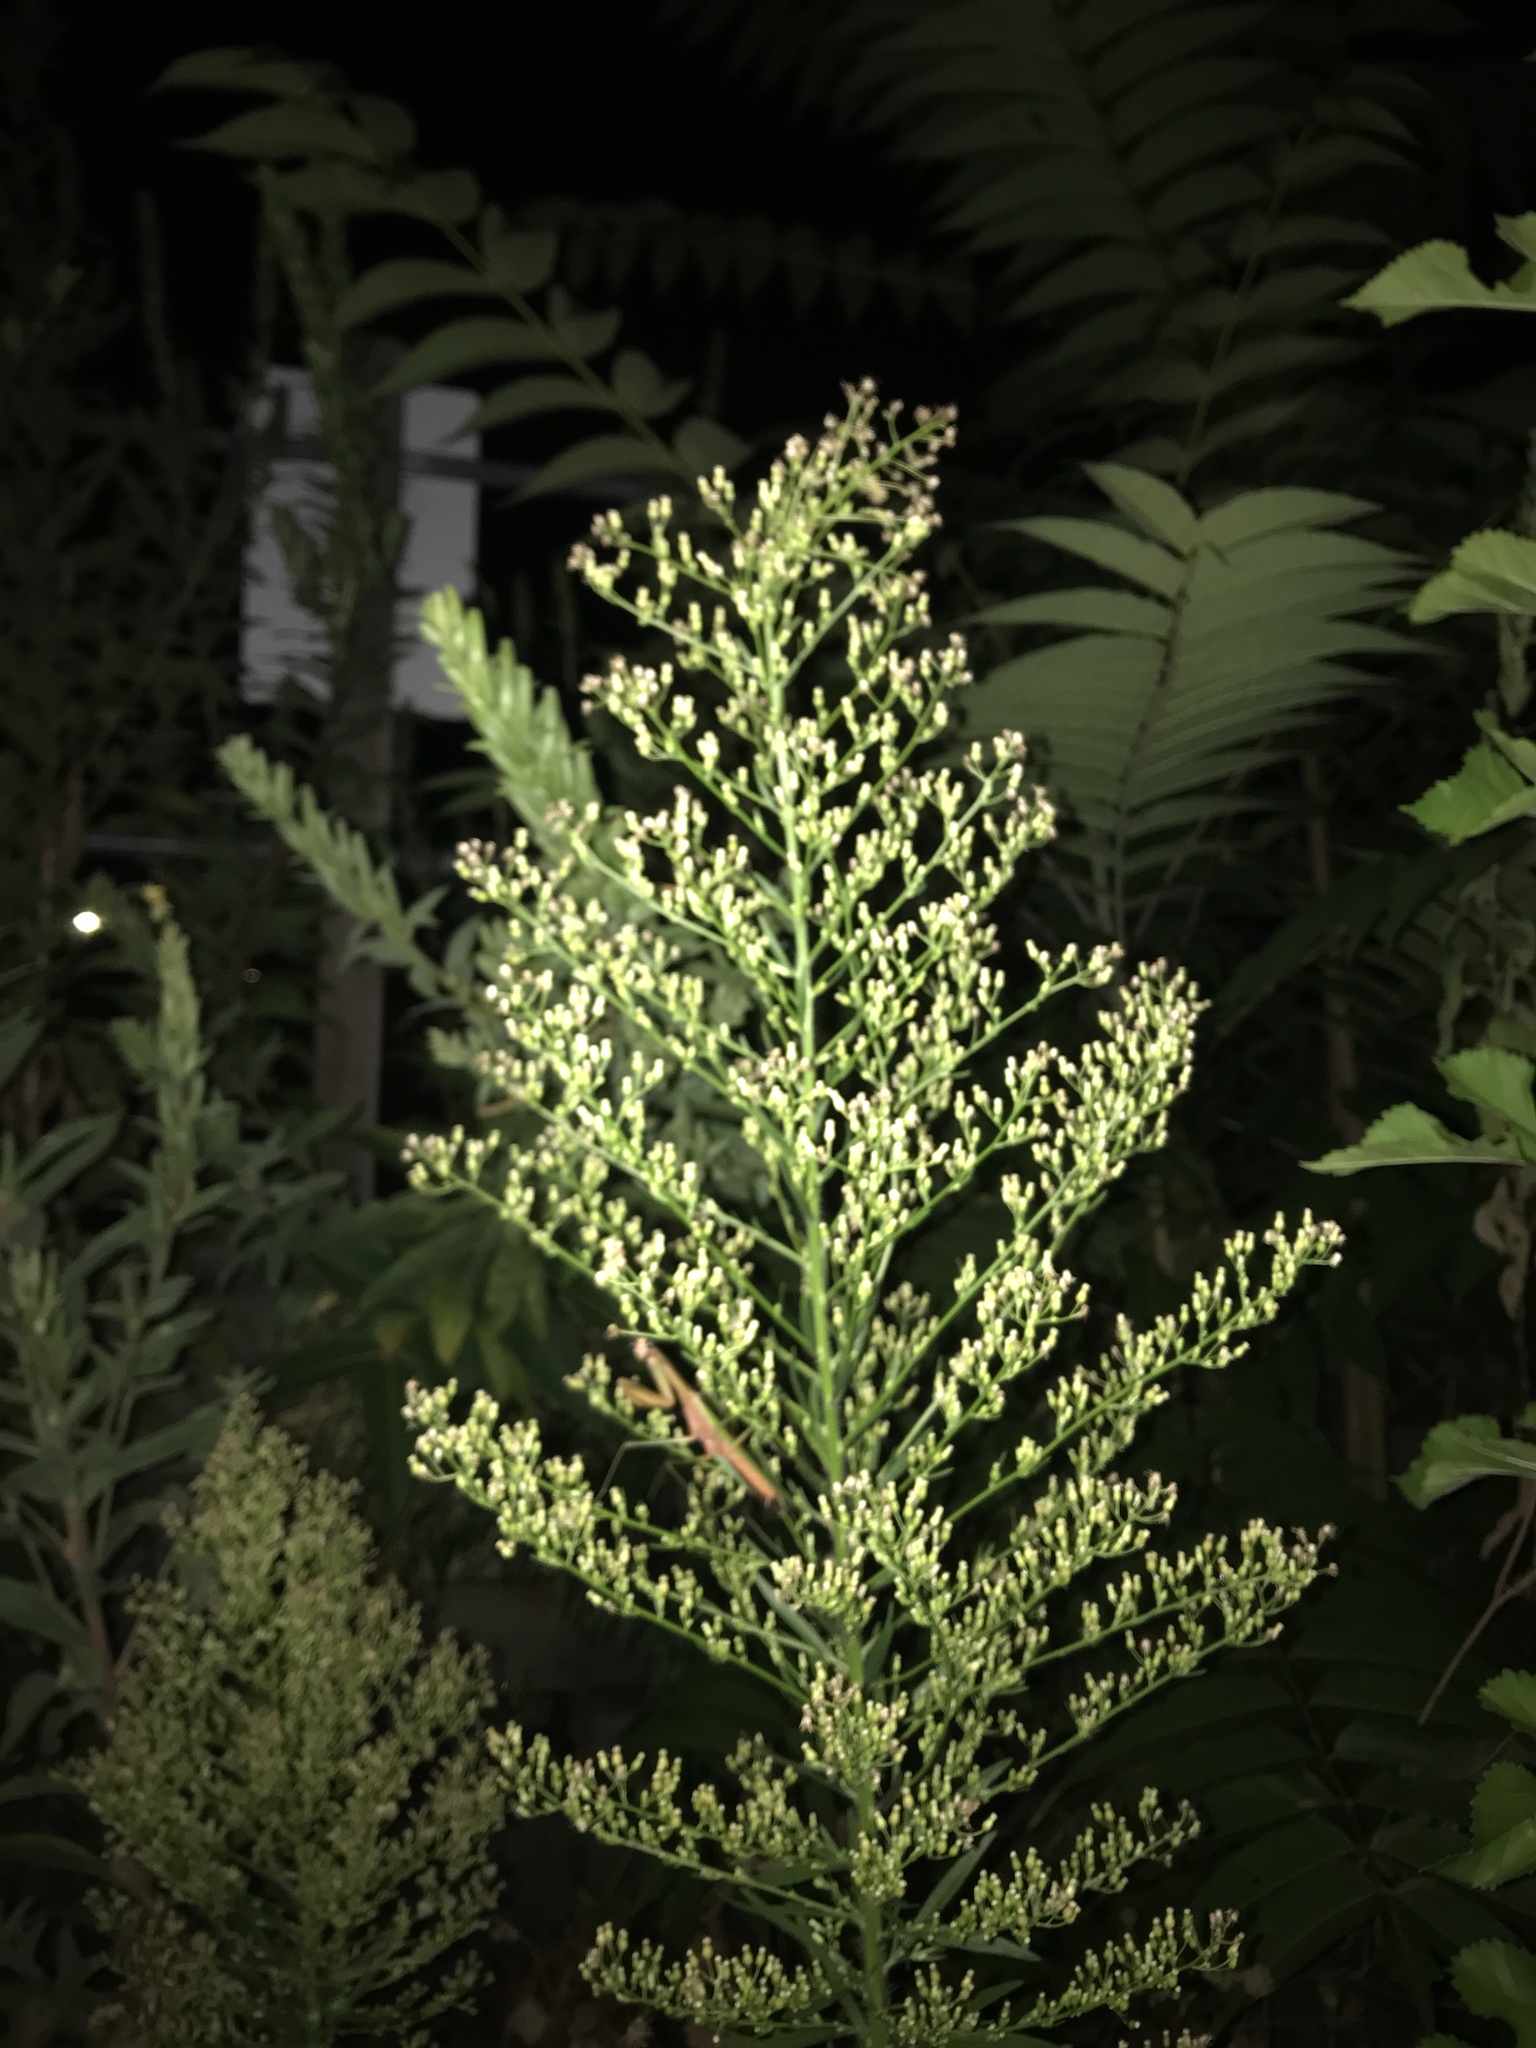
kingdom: Plantae
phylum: Tracheophyta
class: Magnoliopsida
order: Asterales
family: Asteraceae
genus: Erigeron
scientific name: Erigeron canadensis
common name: Canadian fleabane
